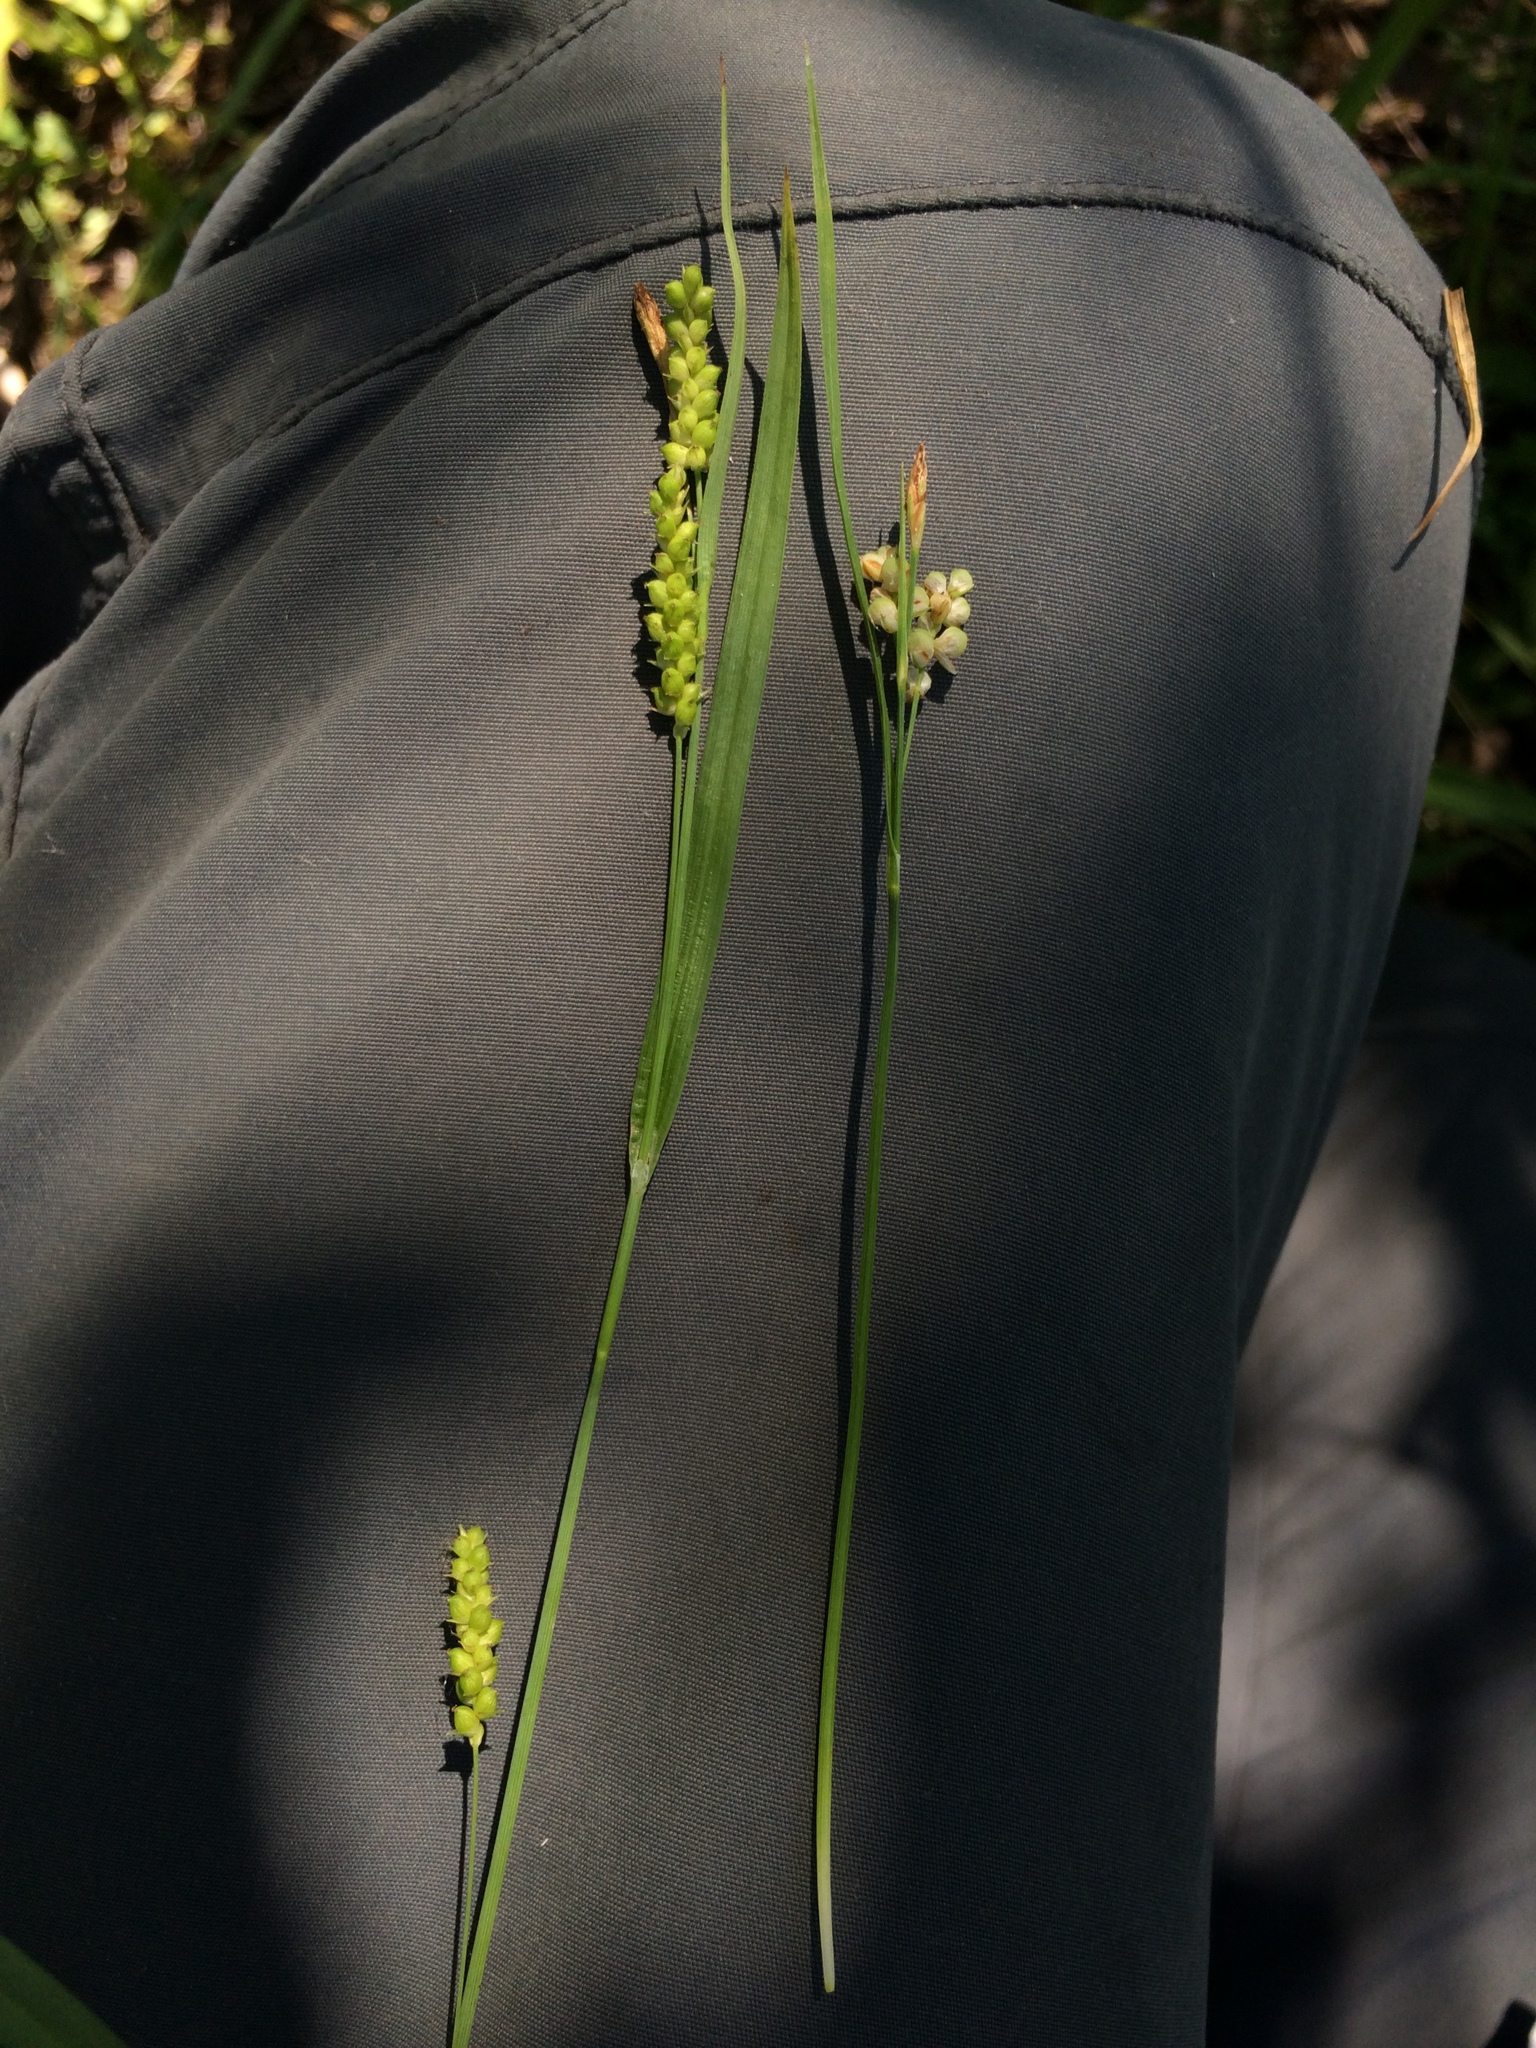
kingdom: Plantae
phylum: Tracheophyta
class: Liliopsida
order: Poales
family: Cyperaceae
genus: Carex
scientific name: Carex aurea
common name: Golden sedge
